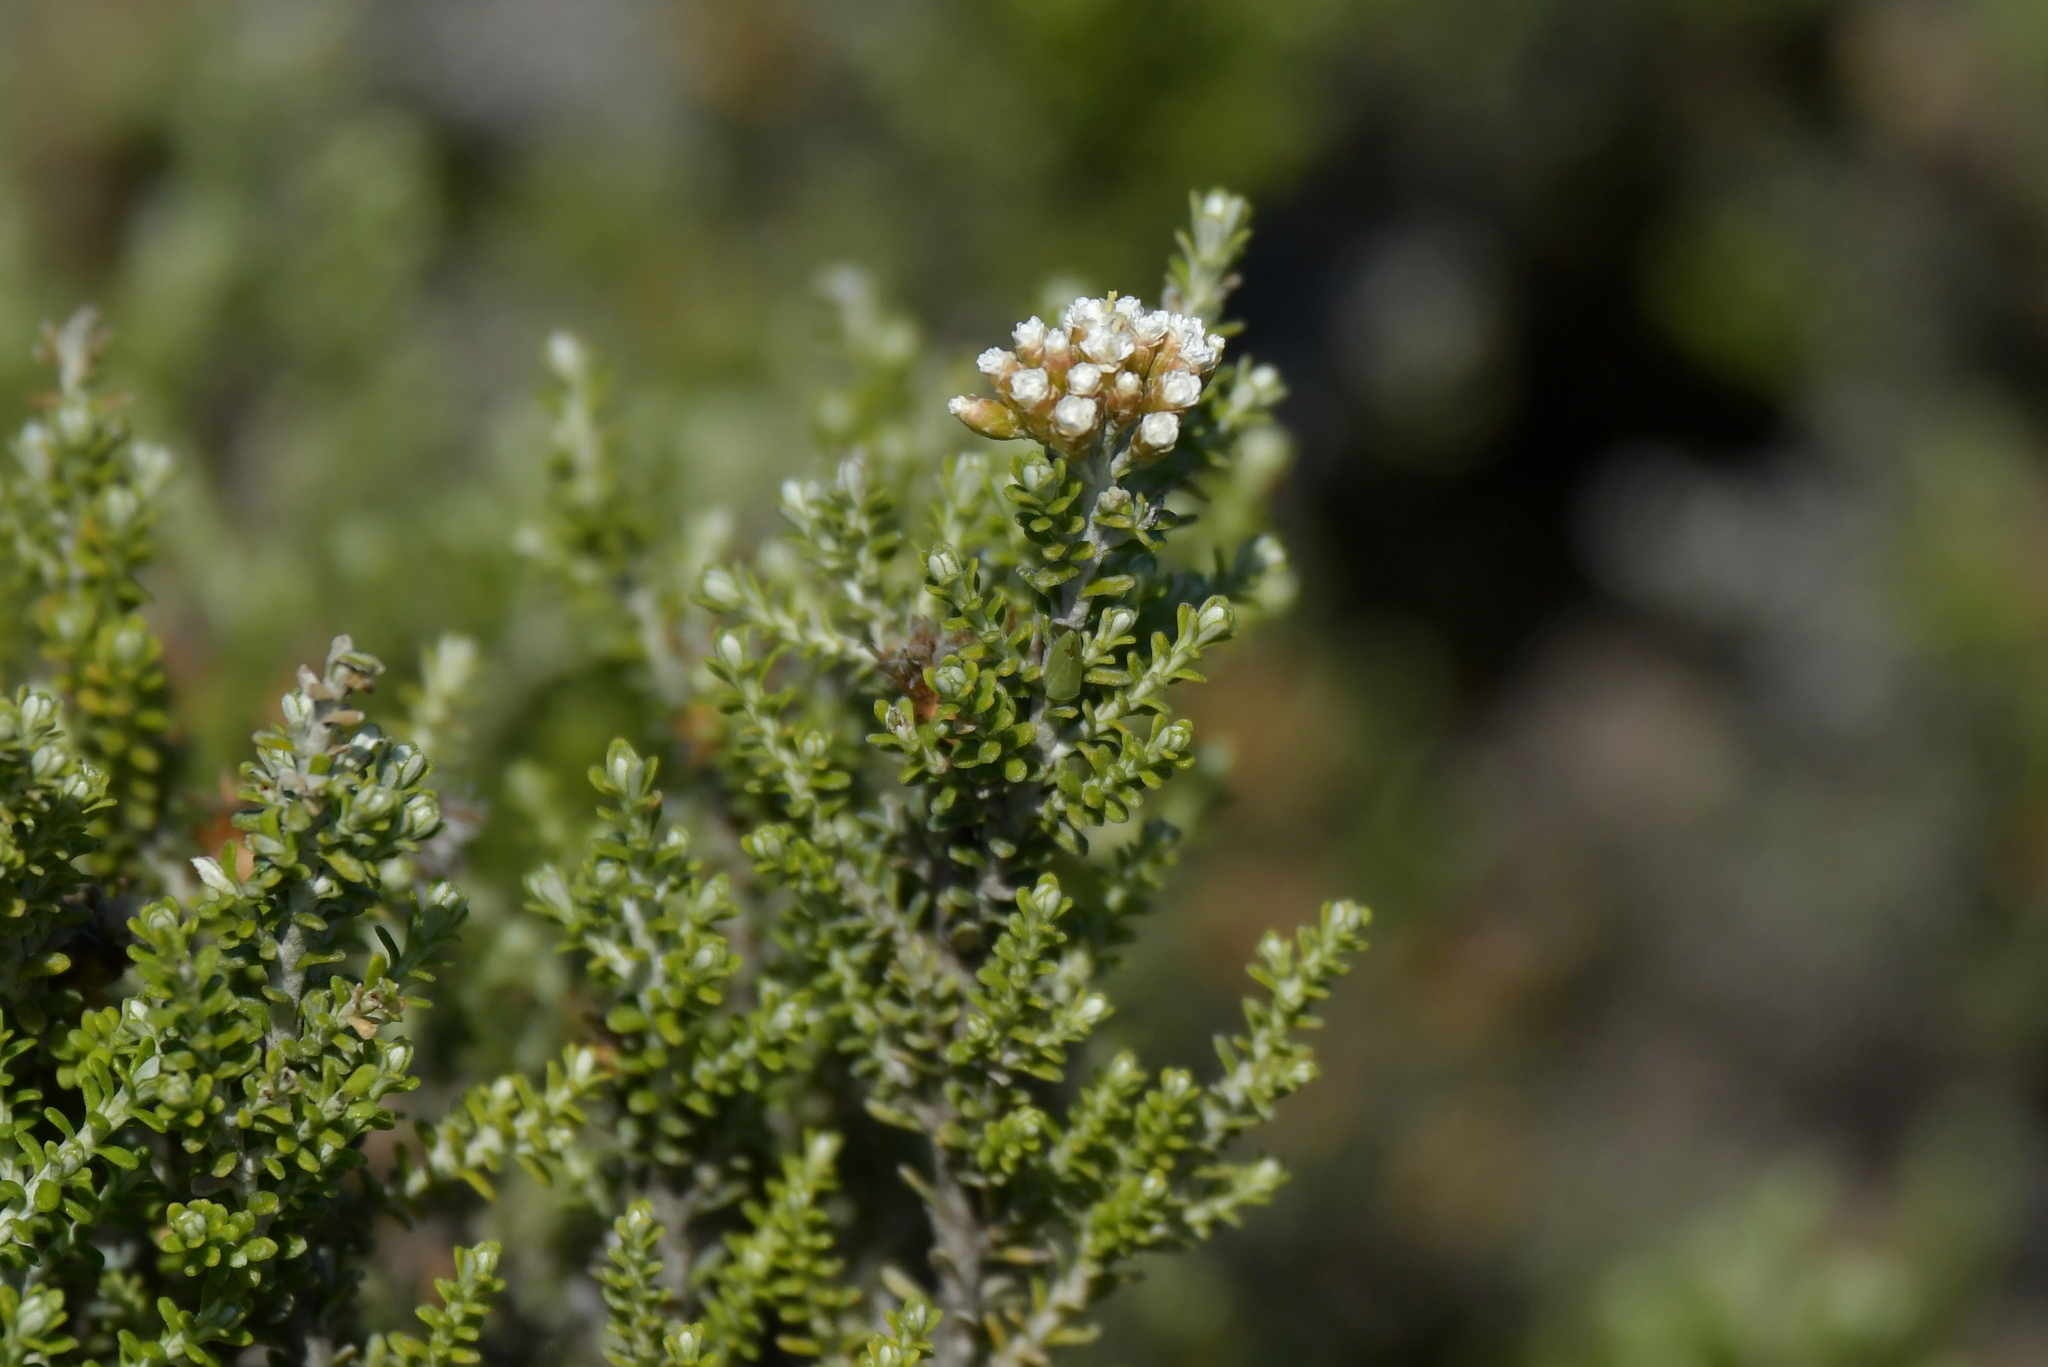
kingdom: Plantae
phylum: Tracheophyta
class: Magnoliopsida
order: Asterales
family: Asteraceae
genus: Ozothamnus
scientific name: Ozothamnus leptophyllus
